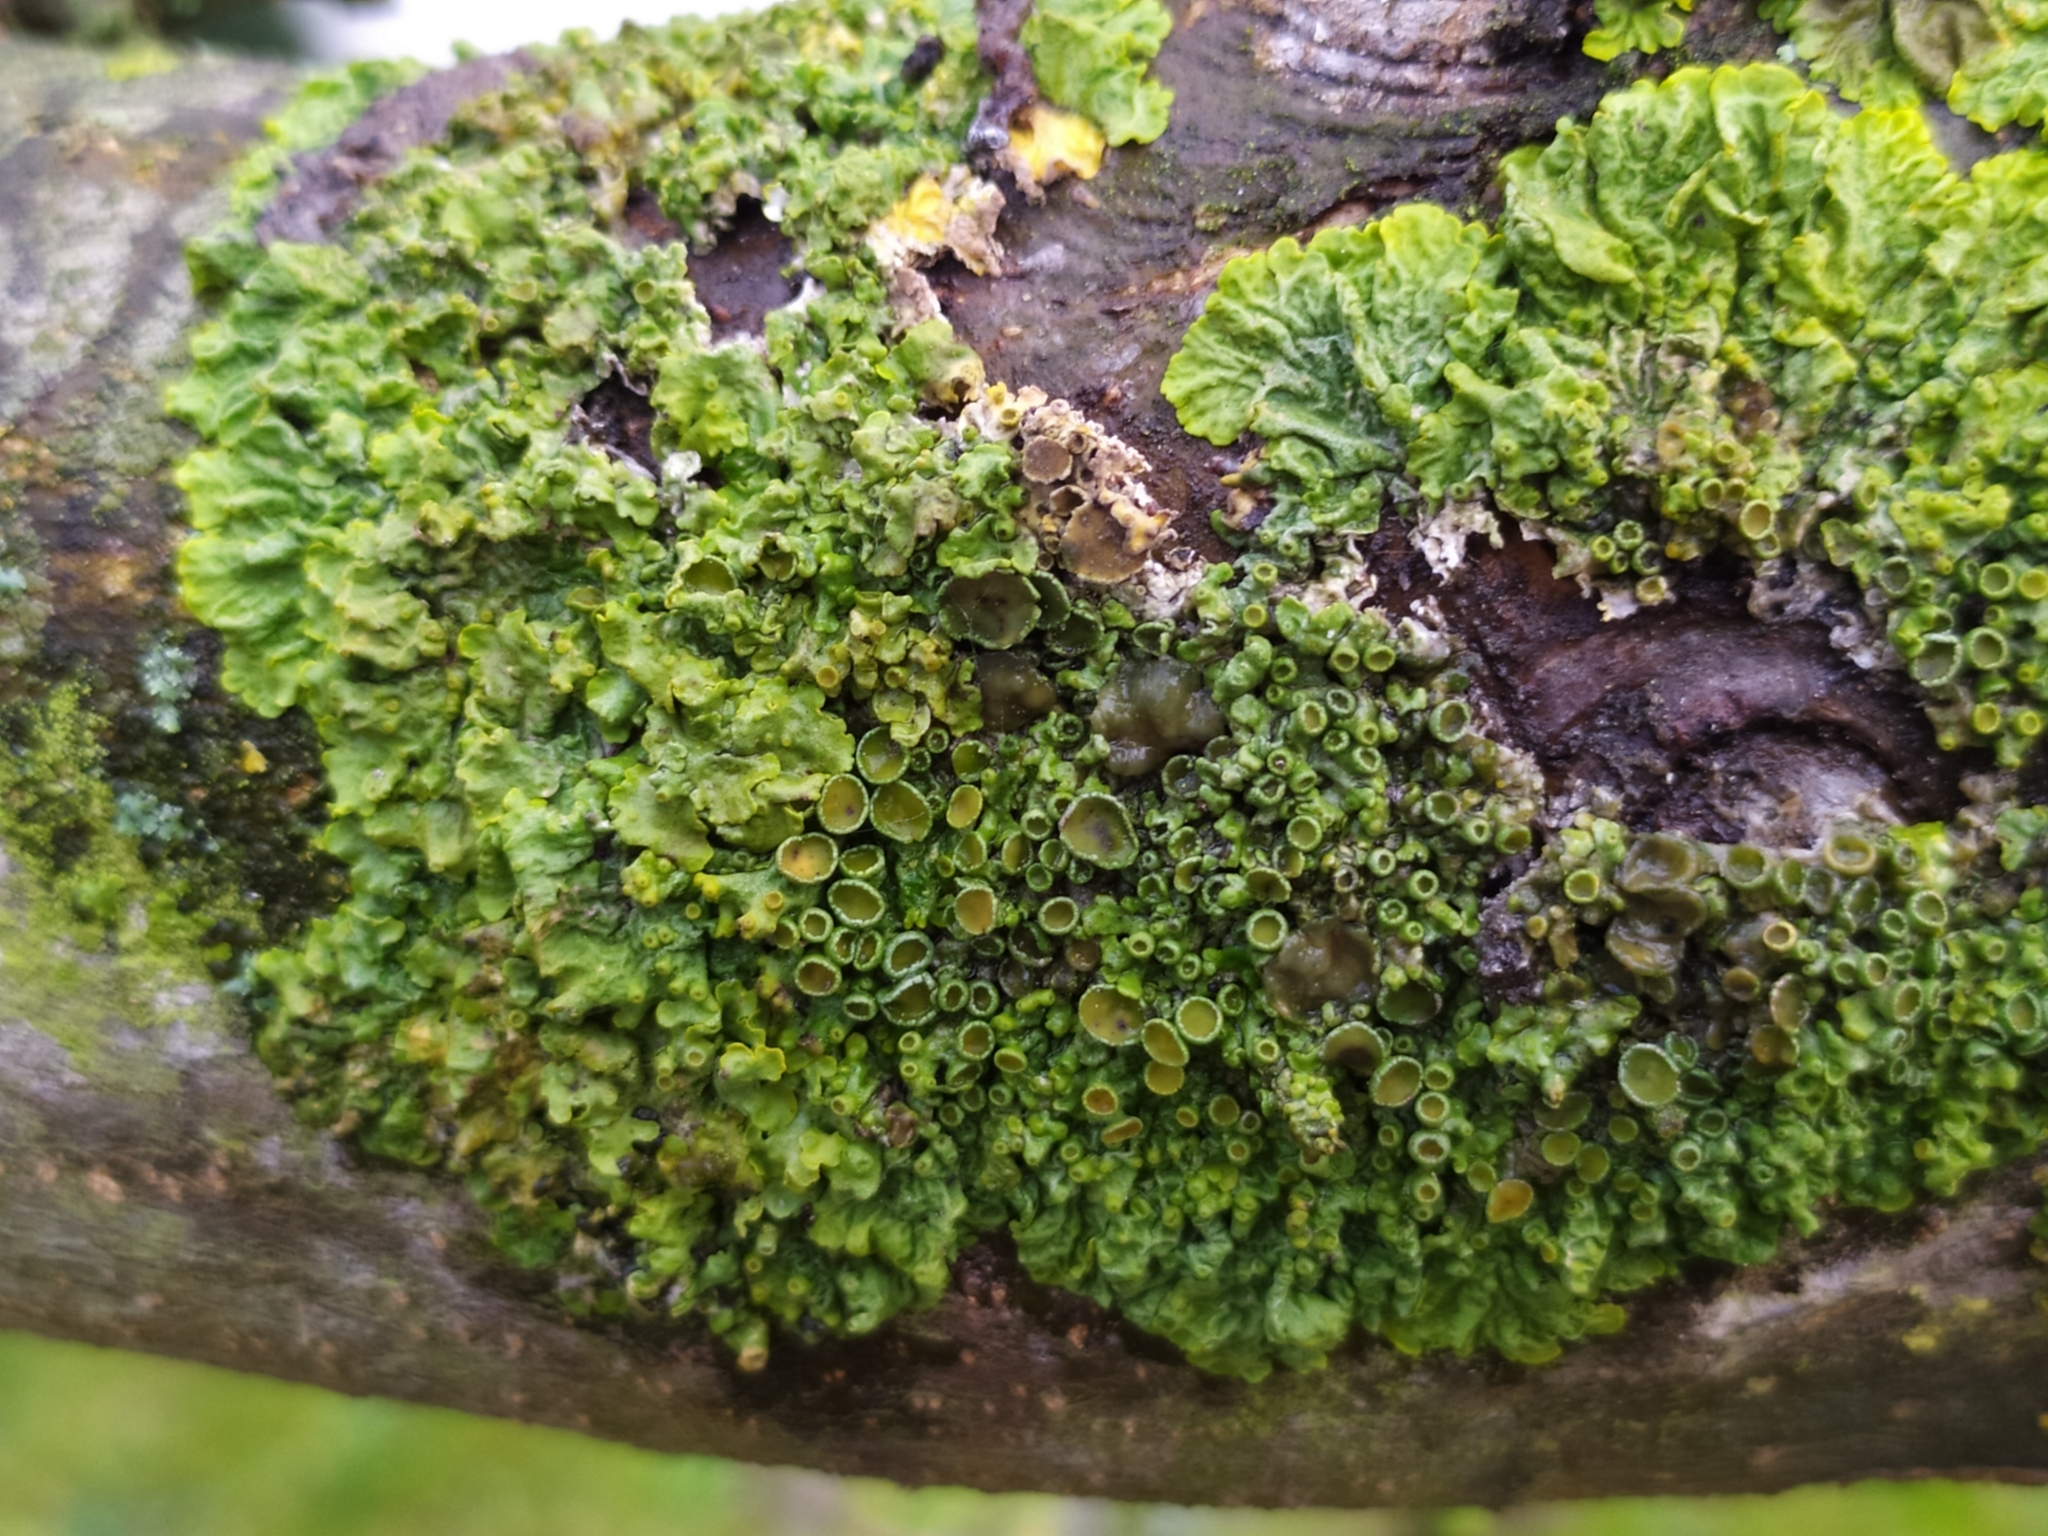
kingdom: Fungi
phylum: Ascomycota
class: Lecanoromycetes
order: Teloschistales
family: Teloschistaceae
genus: Xanthoria
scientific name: Xanthoria parietina
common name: Common orange lichen
